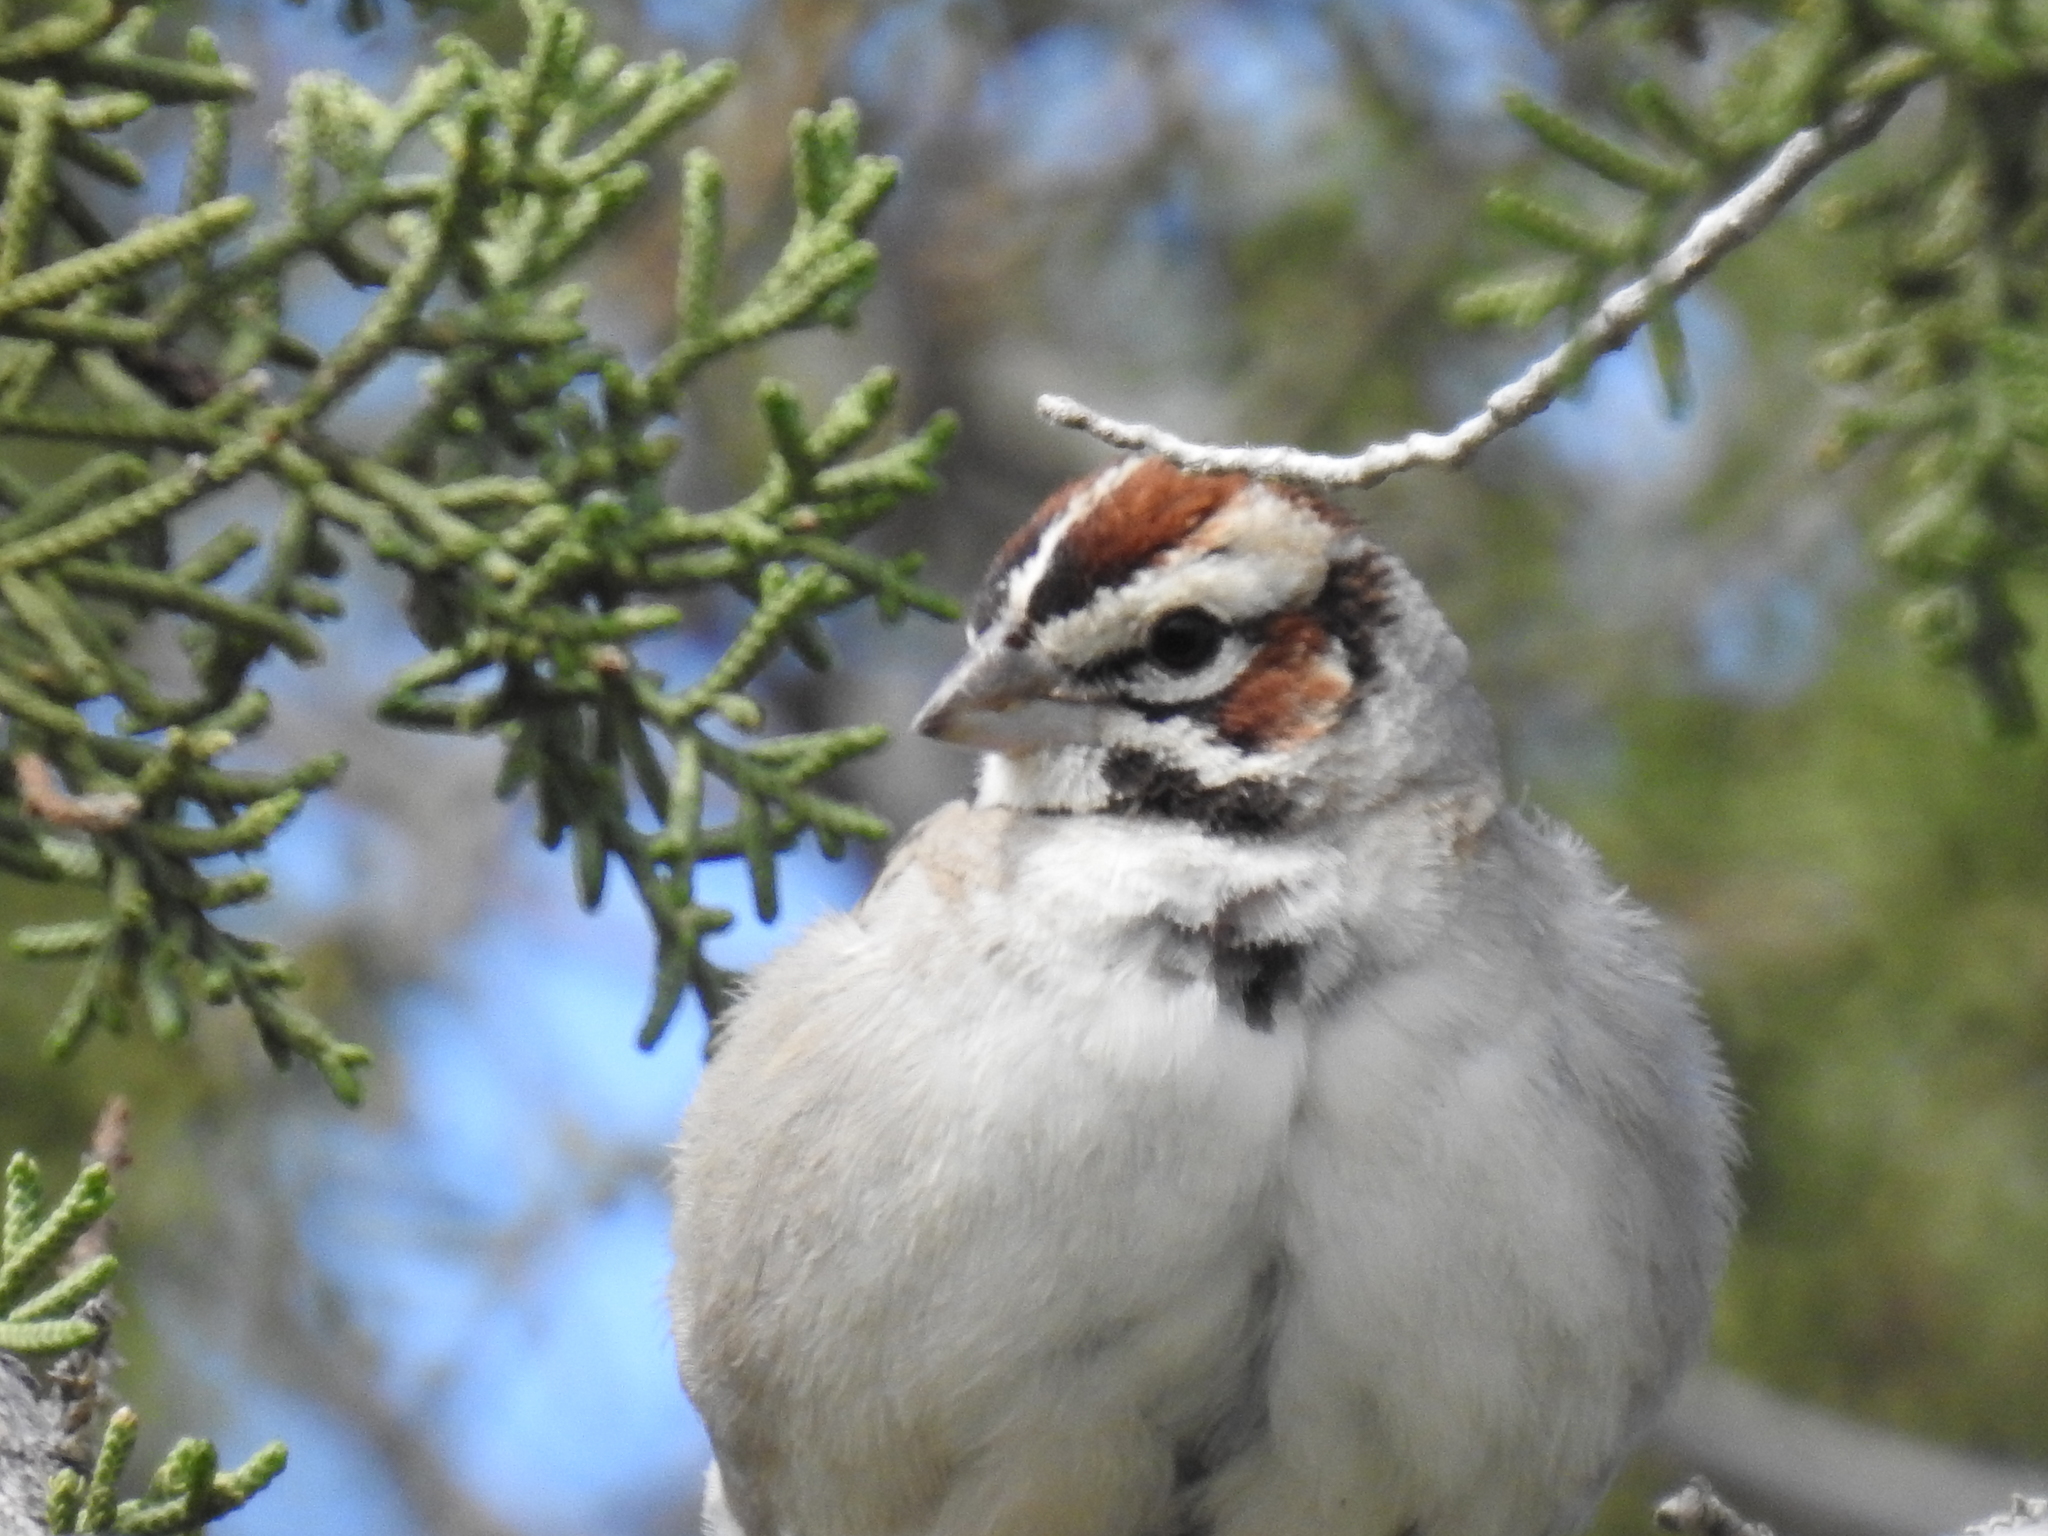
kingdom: Animalia
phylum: Chordata
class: Aves
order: Passeriformes
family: Passerellidae
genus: Chondestes
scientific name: Chondestes grammacus
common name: Lark sparrow
